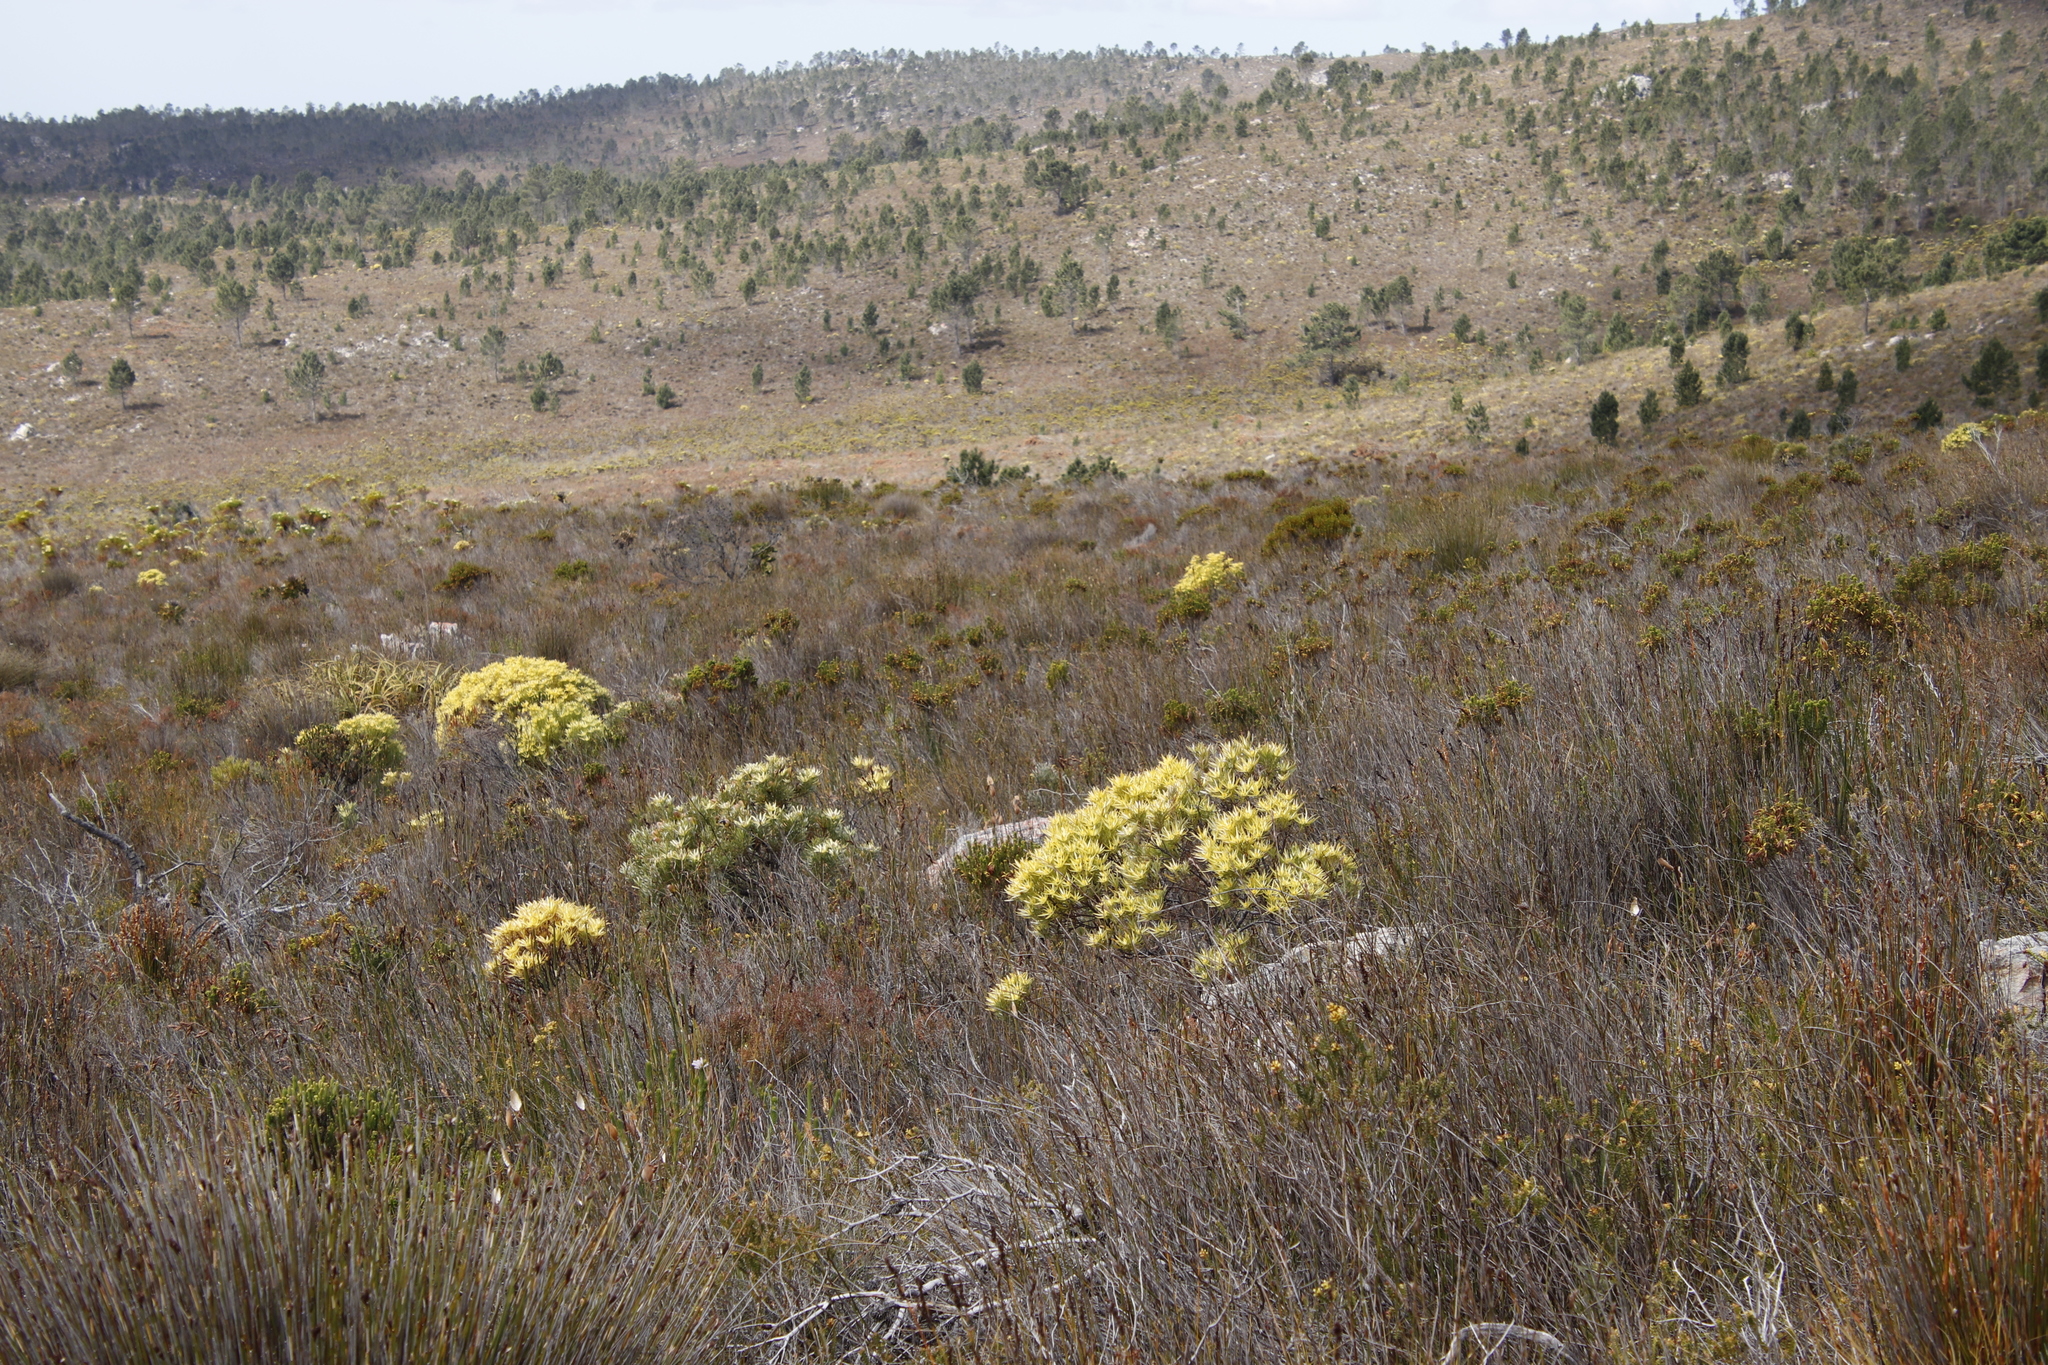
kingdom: Plantae
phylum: Tracheophyta
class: Magnoliopsida
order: Proteales
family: Proteaceae
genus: Leucadendron
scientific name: Leucadendron xanthoconus
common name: Sickle-leaf conebush
